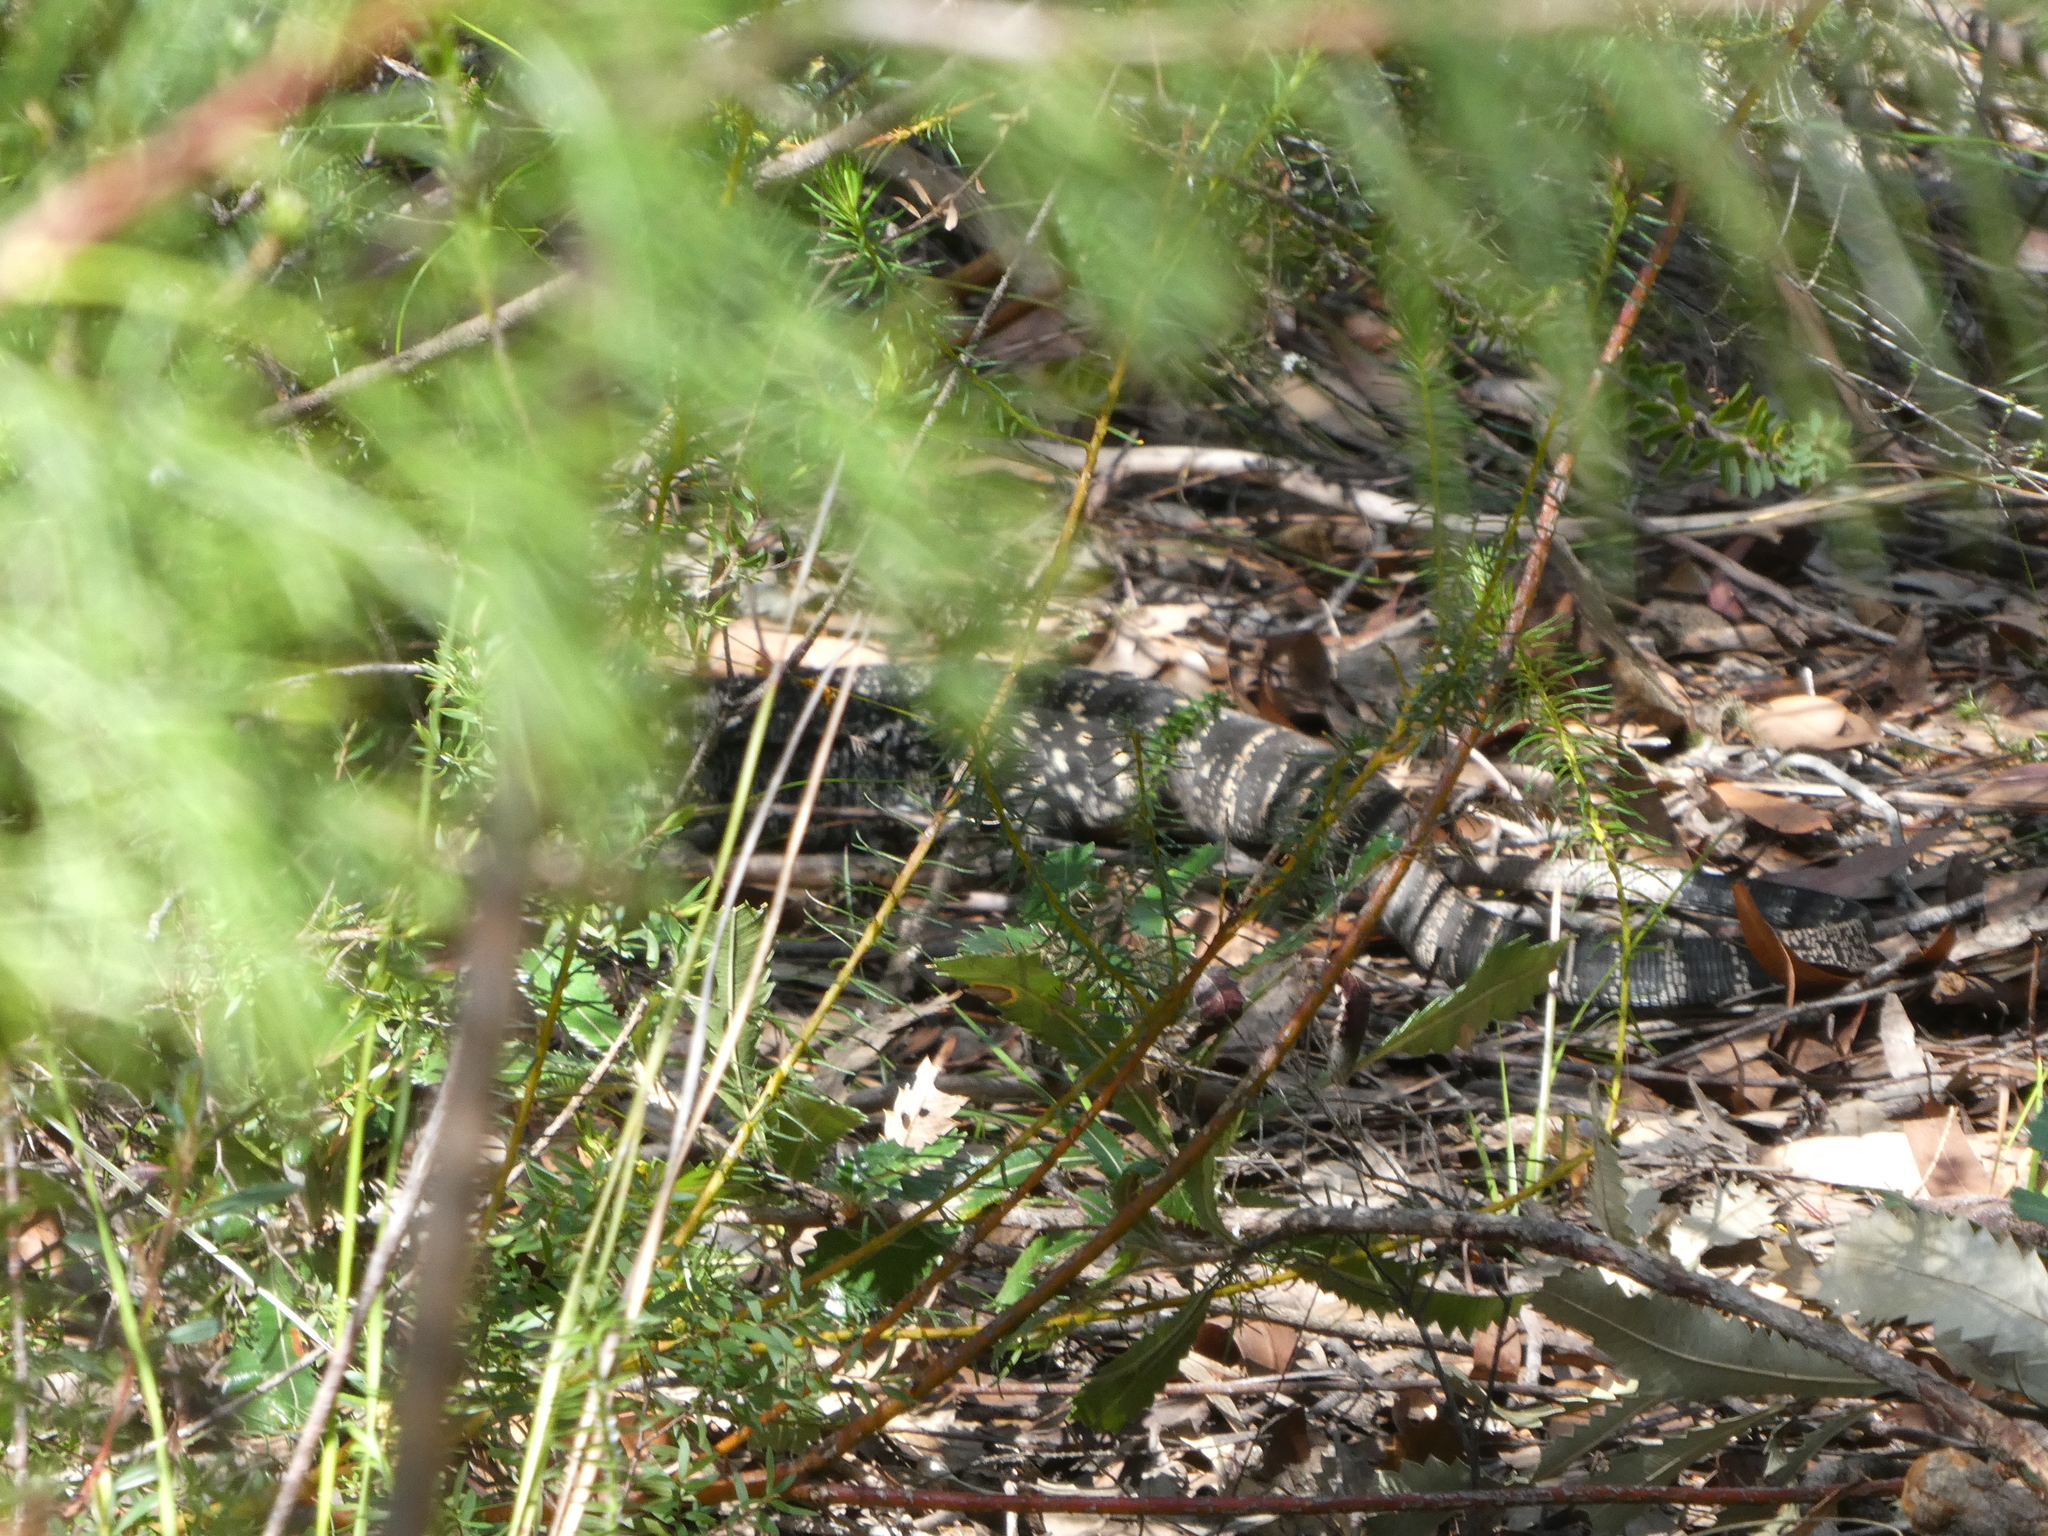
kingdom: Animalia
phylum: Chordata
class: Squamata
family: Varanidae
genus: Varanus
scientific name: Varanus varius
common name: Lace monitor
